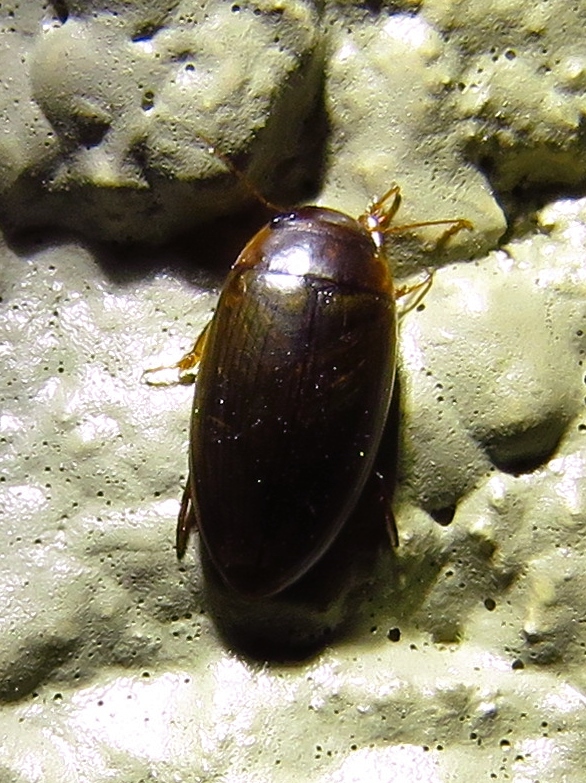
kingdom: Animalia
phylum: Arthropoda
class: Insecta
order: Coleoptera
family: Dytiscidae
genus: Copelatus
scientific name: Copelatus chevrolati
